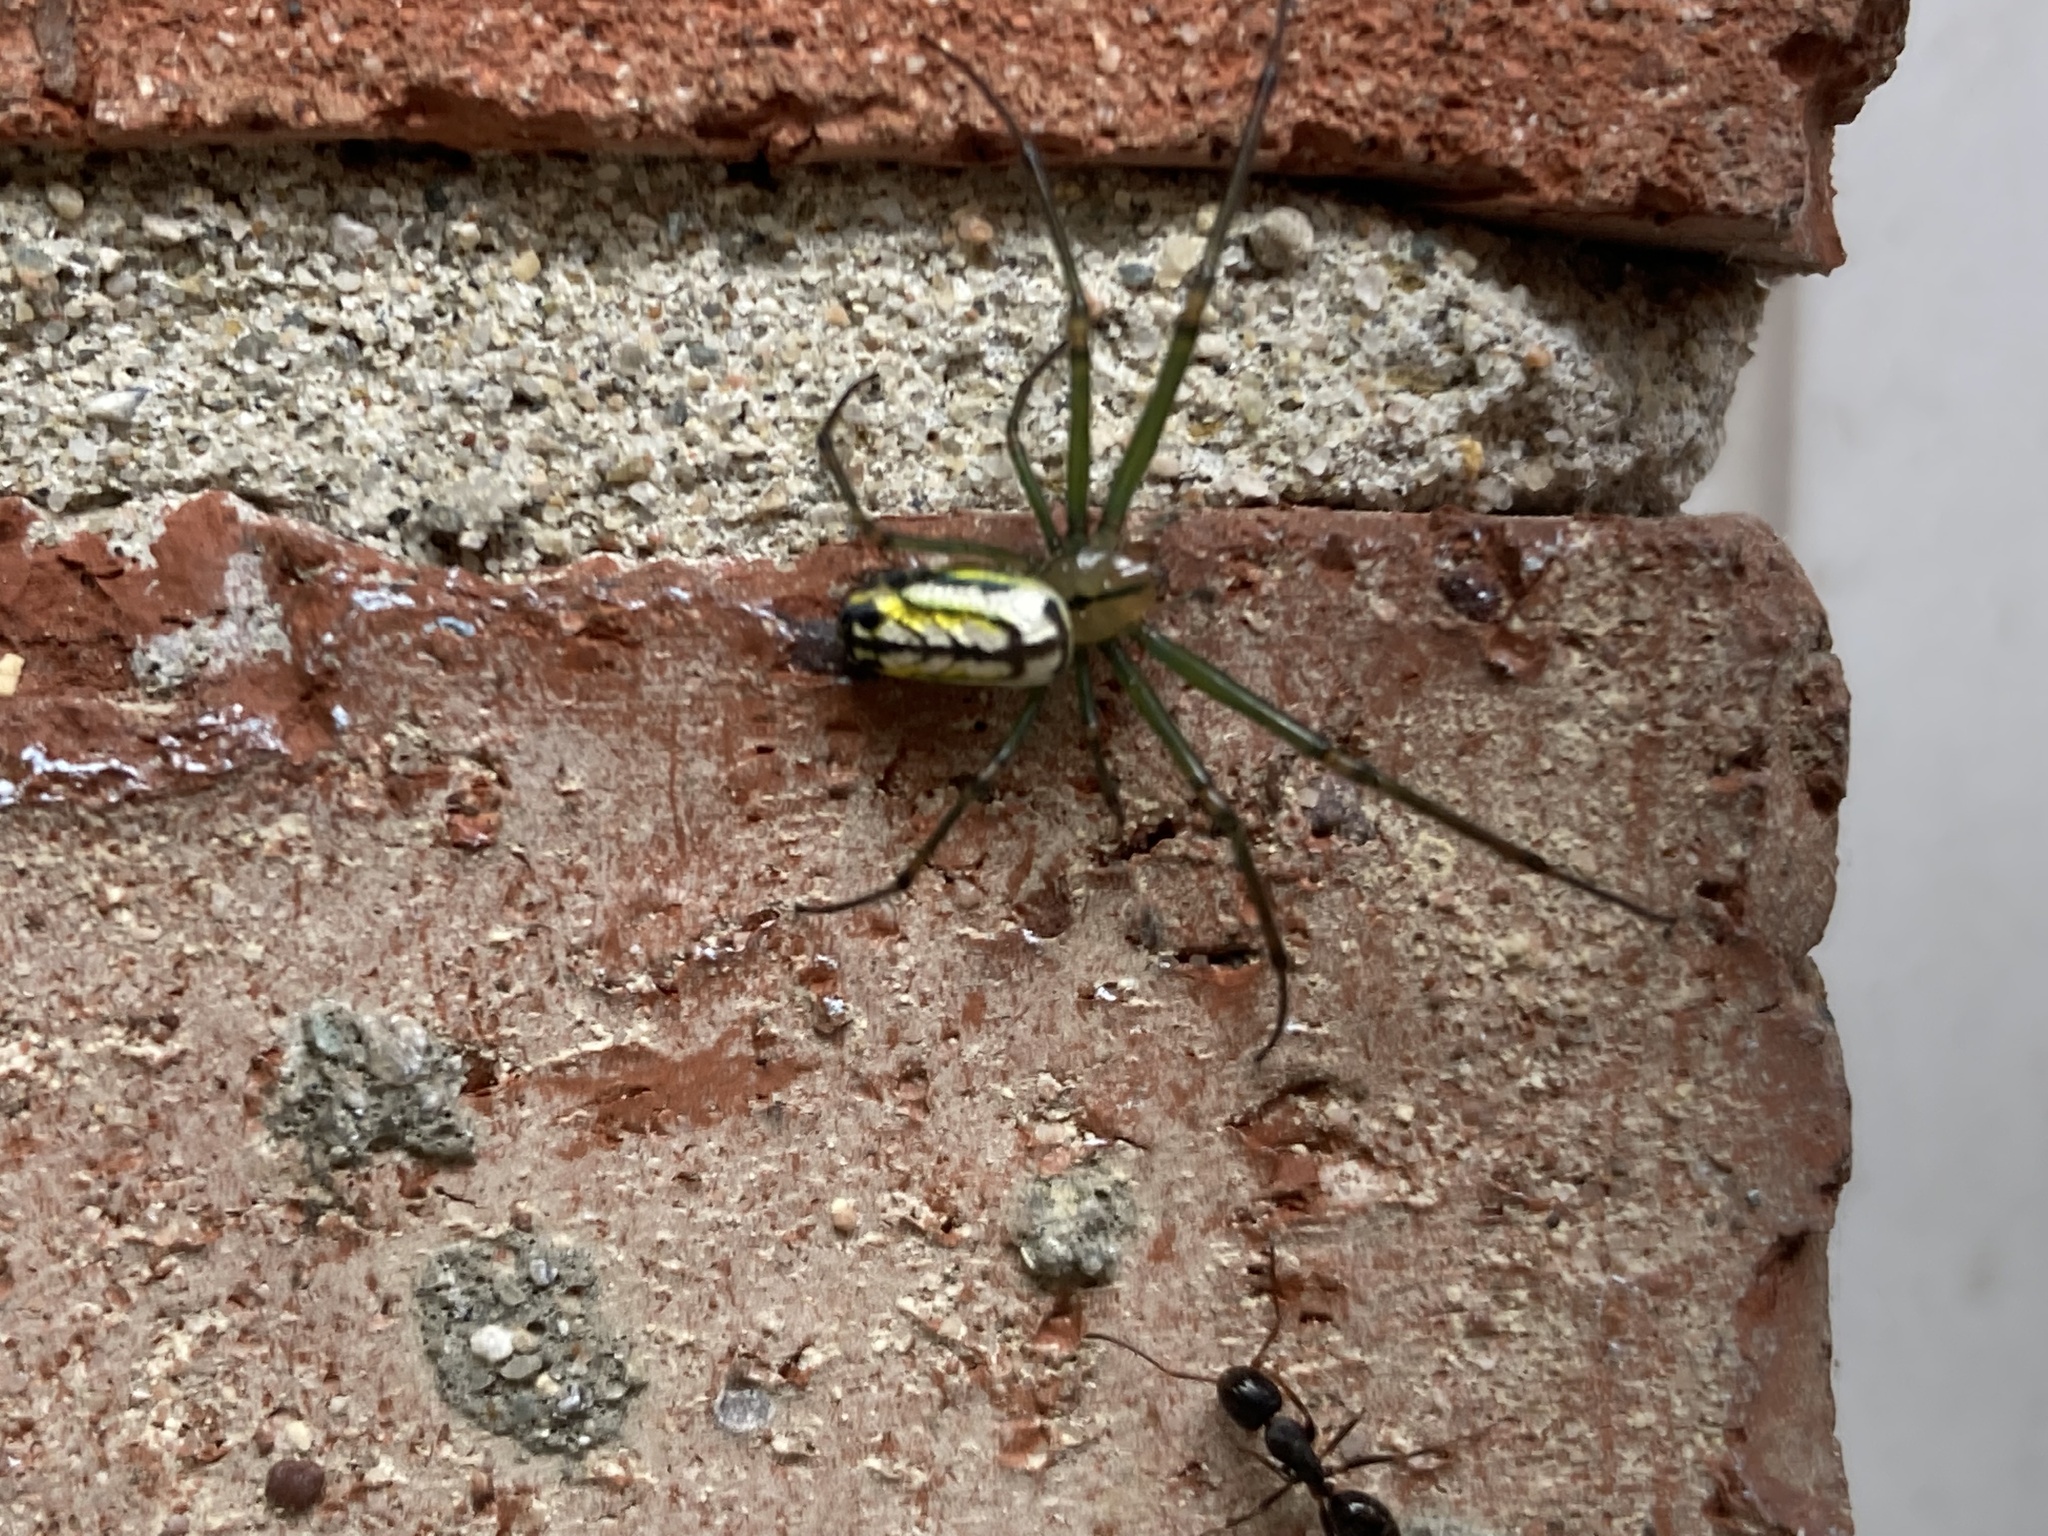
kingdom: Animalia
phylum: Arthropoda
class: Arachnida
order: Araneae
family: Tetragnathidae
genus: Leucauge
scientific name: Leucauge venusta
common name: Longjawed orb weavers
